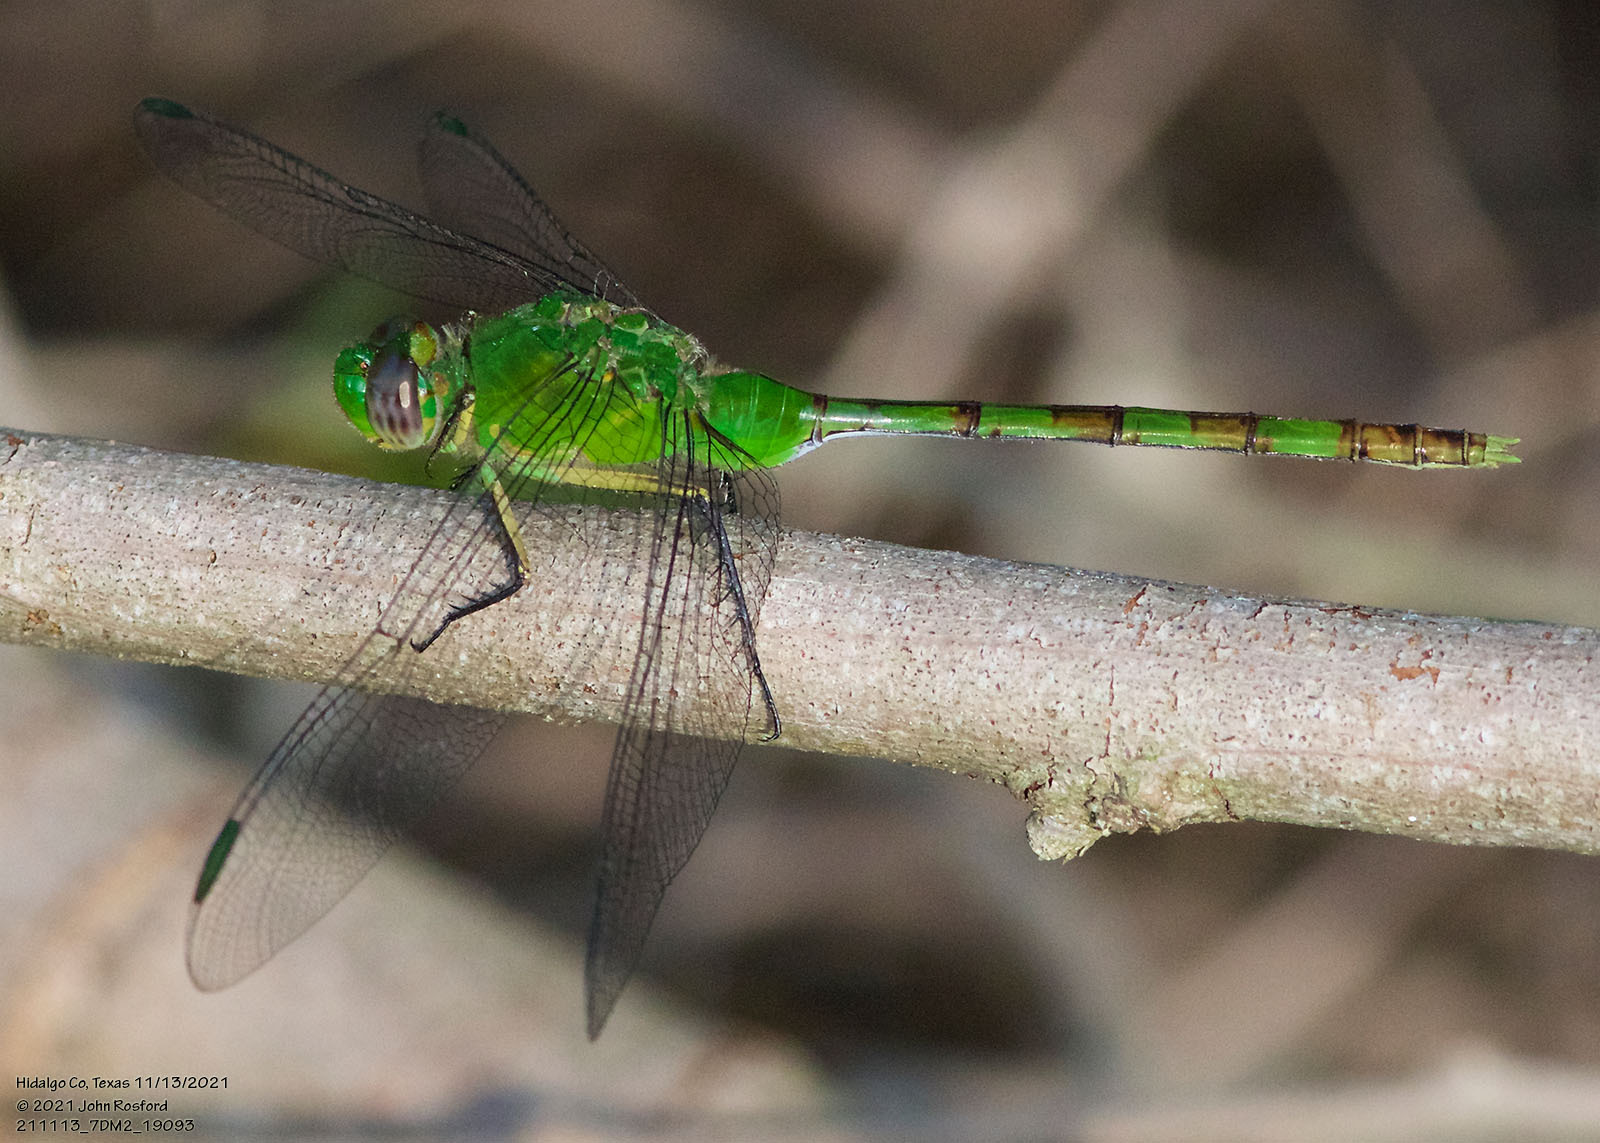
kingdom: Animalia
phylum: Arthropoda
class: Insecta
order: Odonata
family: Libellulidae
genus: Erythemis
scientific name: Erythemis vesiculosa
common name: Great pondhawk
